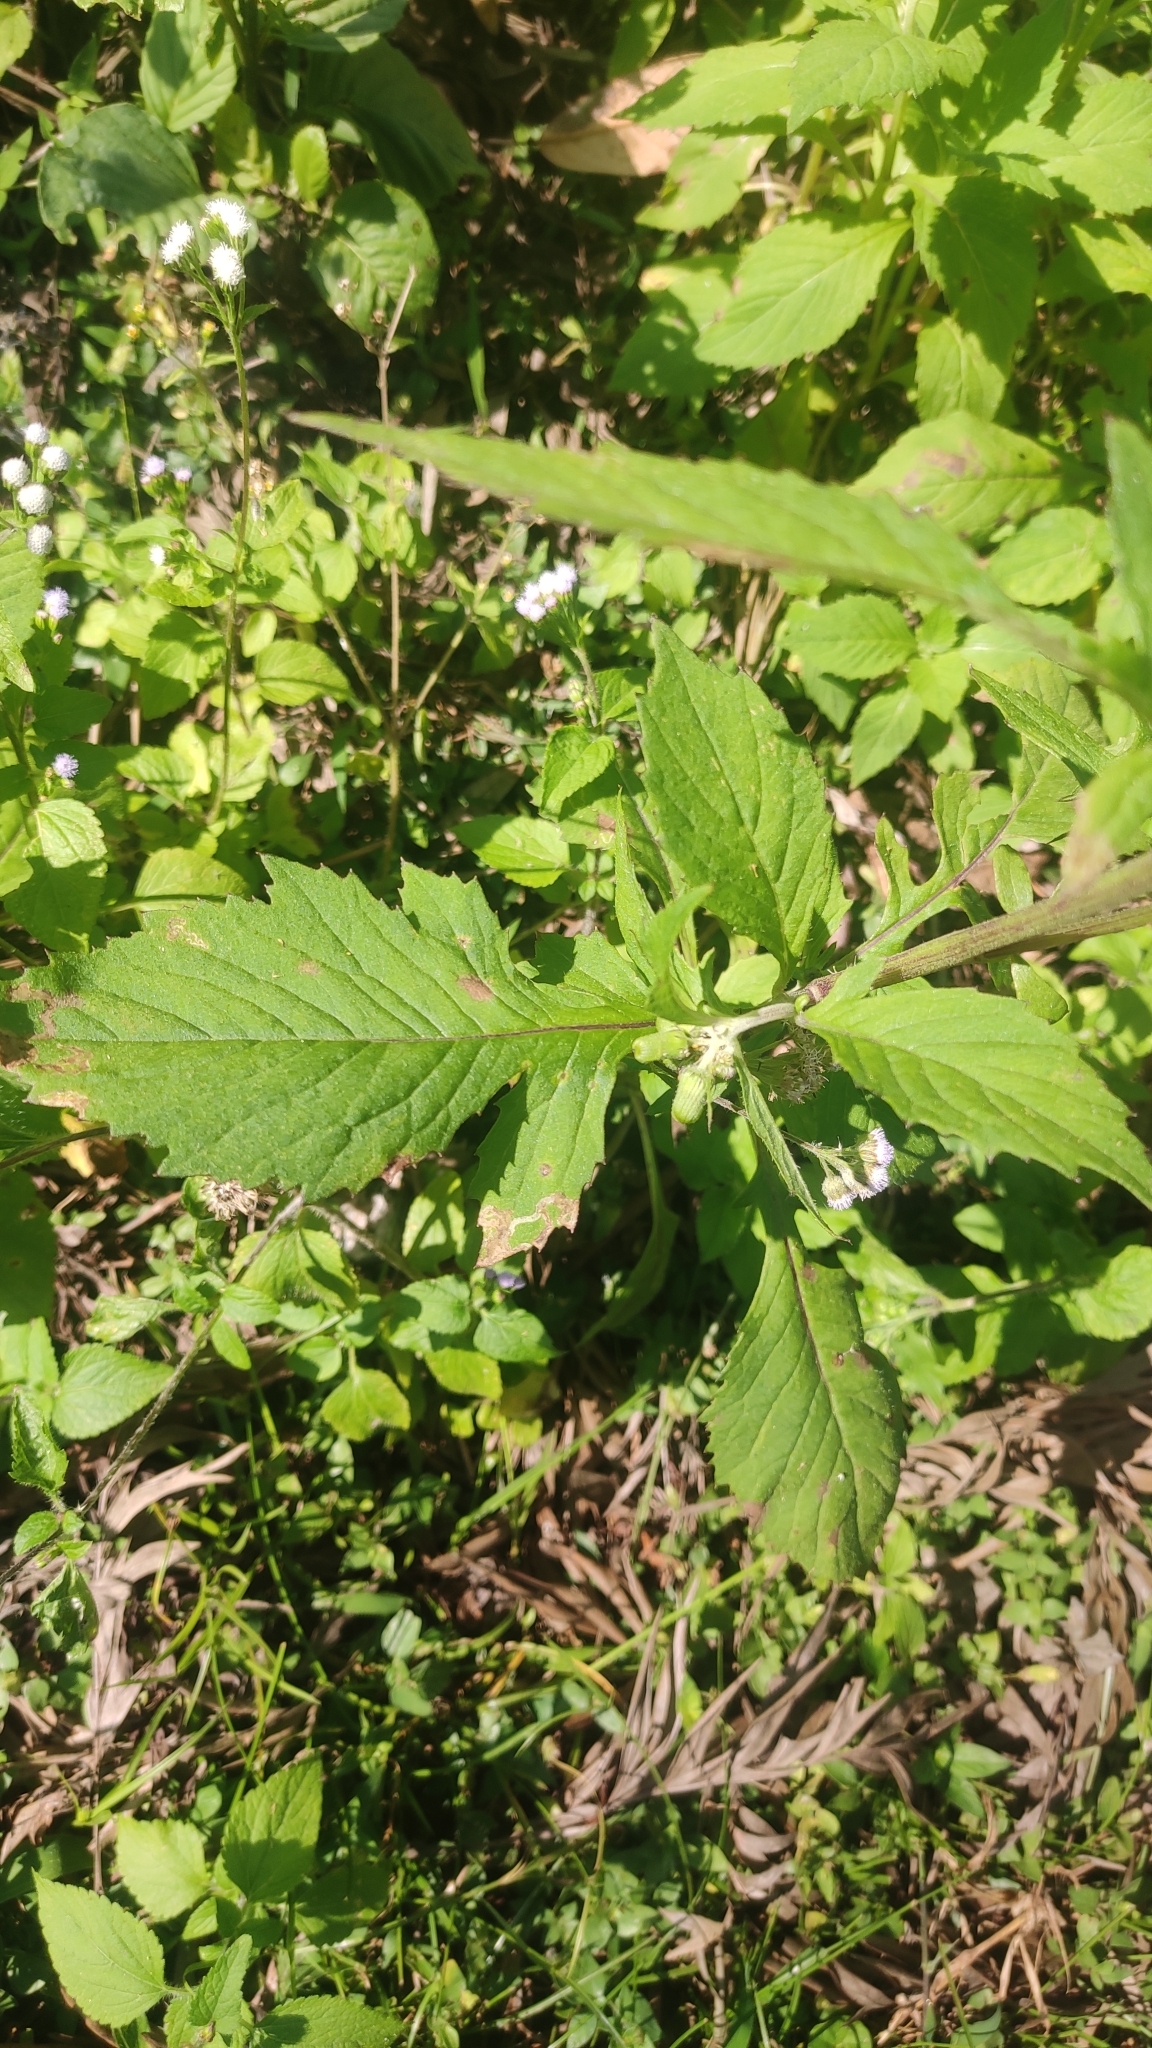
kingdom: Plantae
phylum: Tracheophyta
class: Magnoliopsida
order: Asterales
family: Asteraceae
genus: Crassocephalum
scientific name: Crassocephalum crepidioides
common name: Redflower ragleaf
